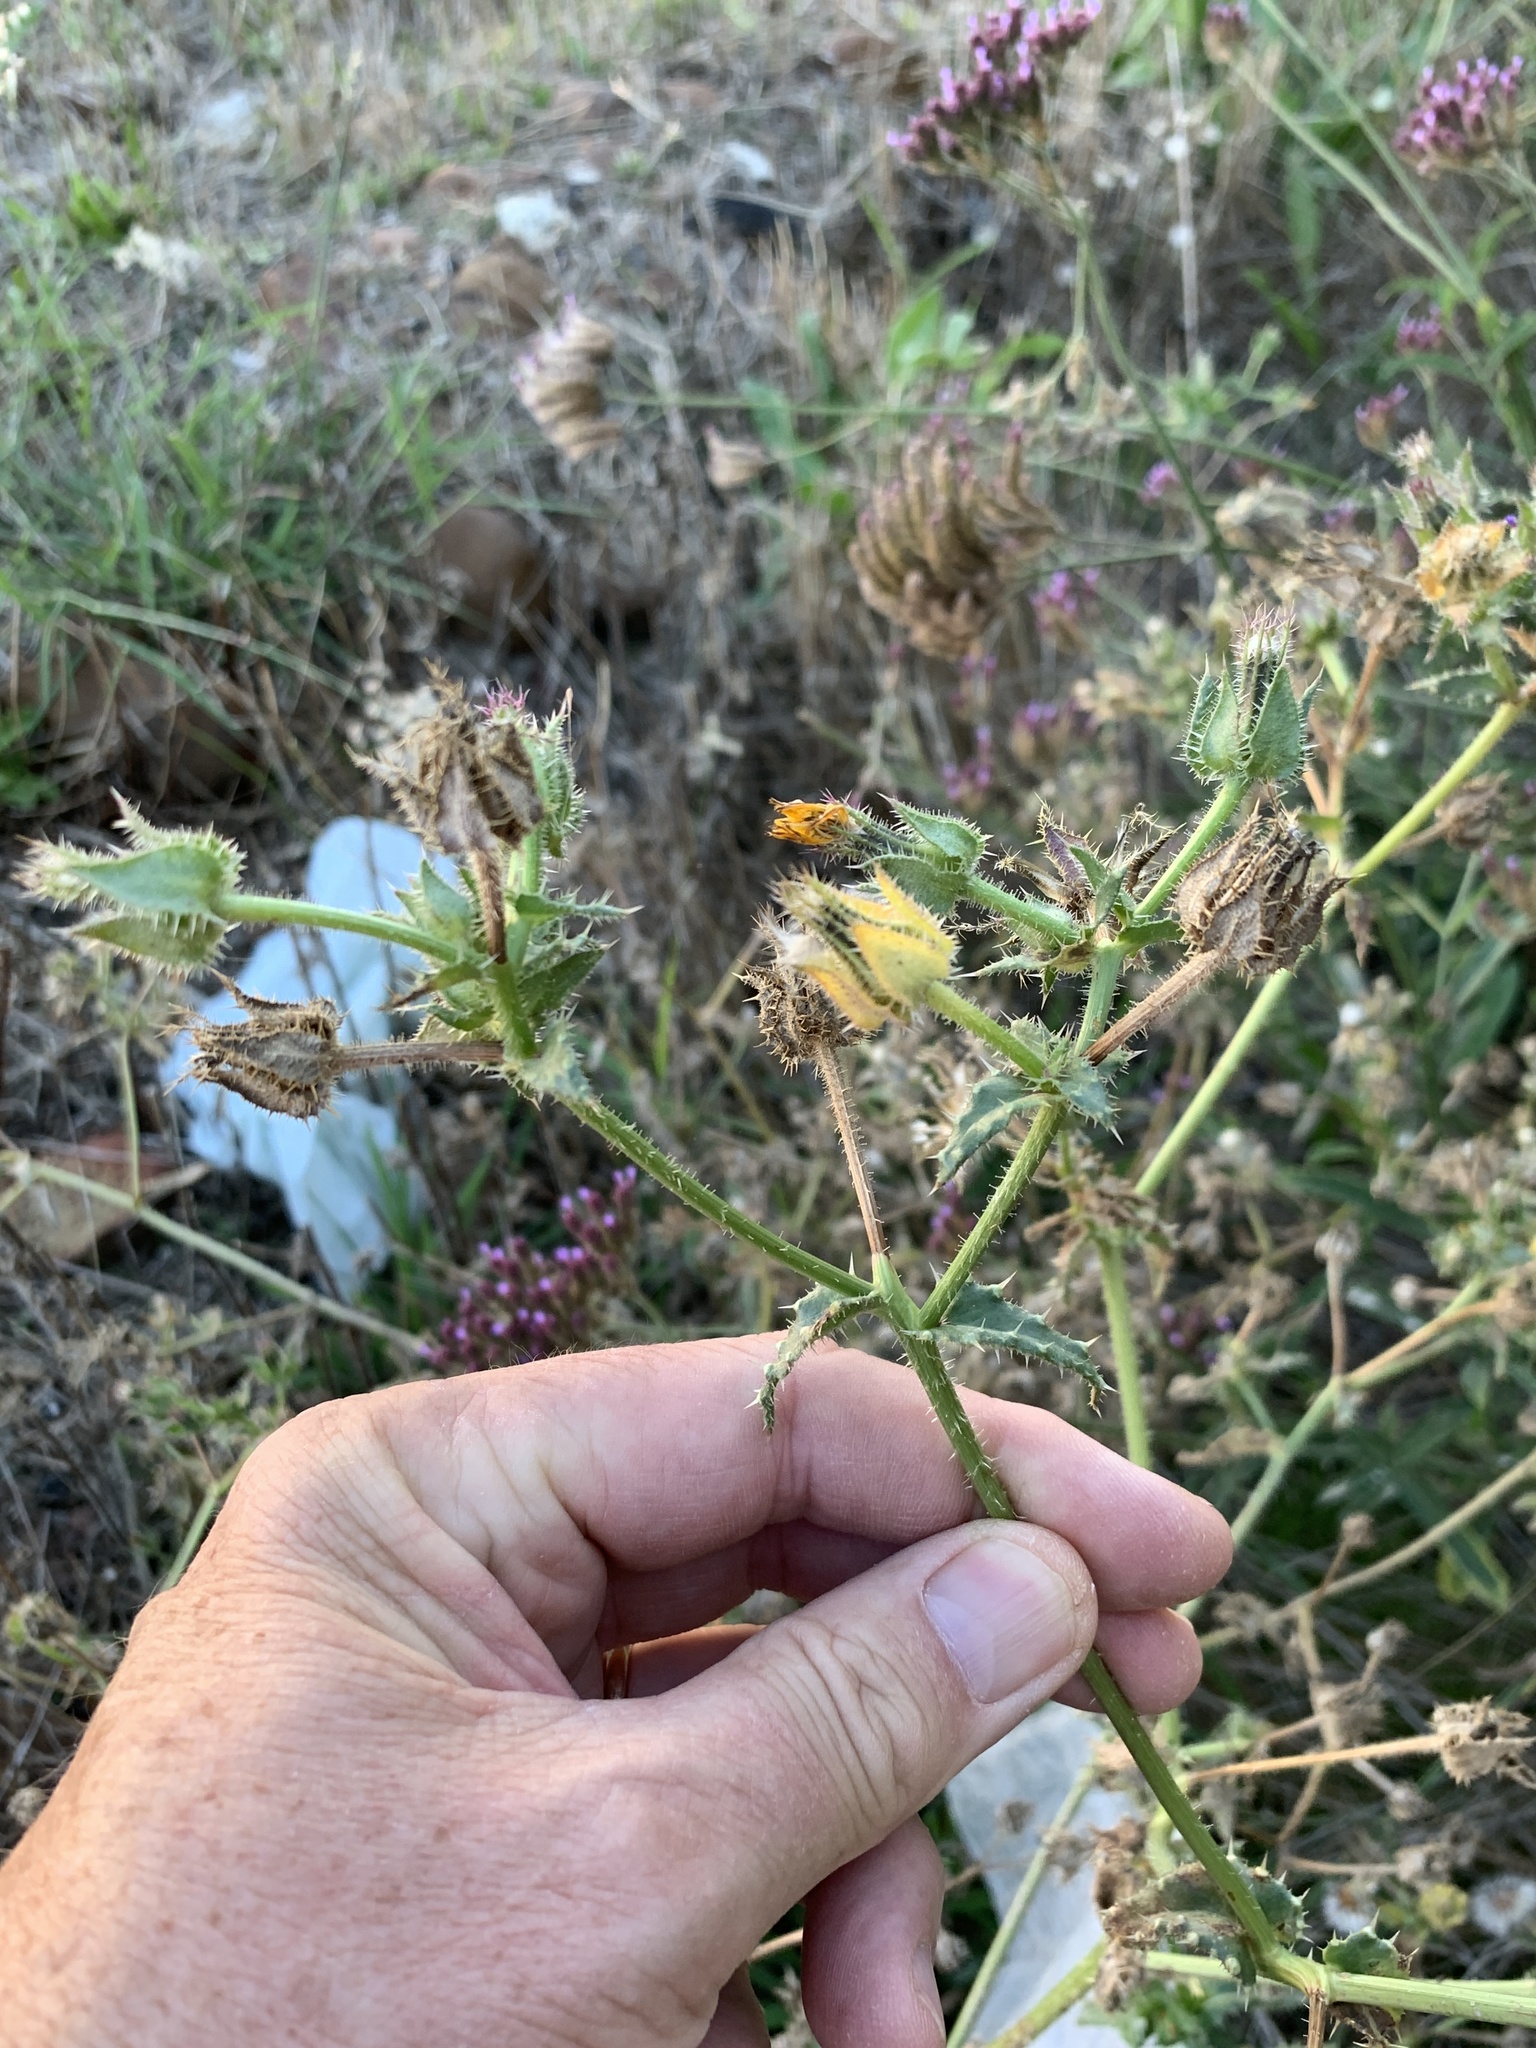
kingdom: Plantae
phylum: Tracheophyta
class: Magnoliopsida
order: Asterales
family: Asteraceae
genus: Helminthotheca
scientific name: Helminthotheca echioides
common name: Ox-tongue
